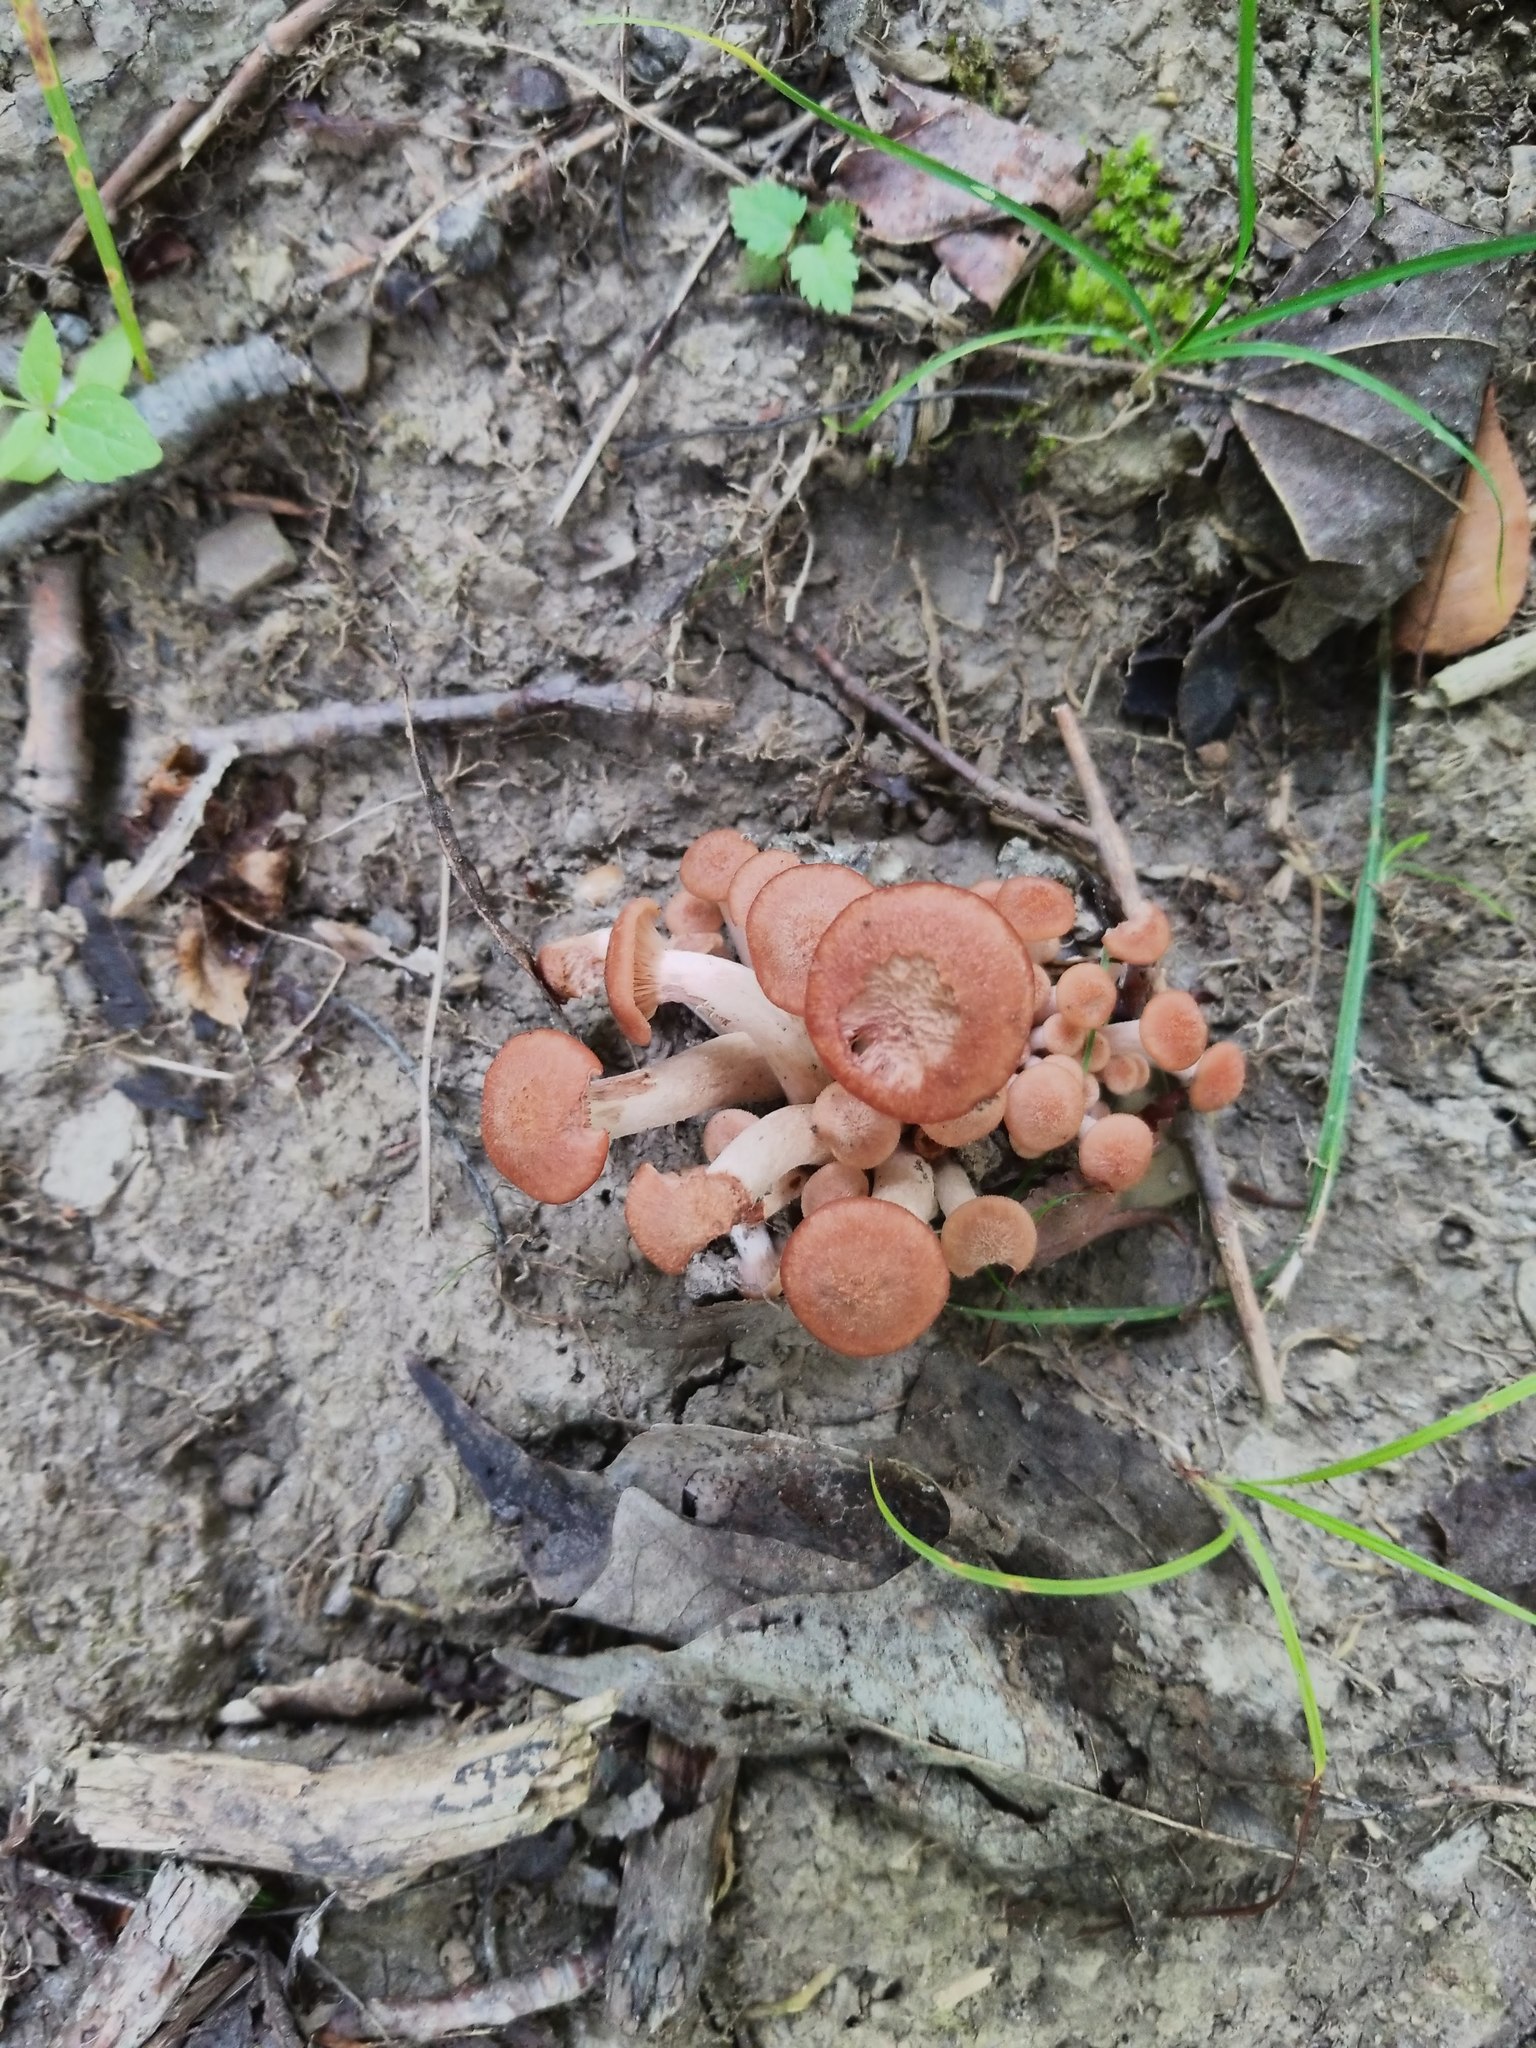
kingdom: Fungi
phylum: Basidiomycota
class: Agaricomycetes
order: Agaricales
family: Physalacriaceae
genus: Desarmillaria
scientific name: Desarmillaria caespitosa
